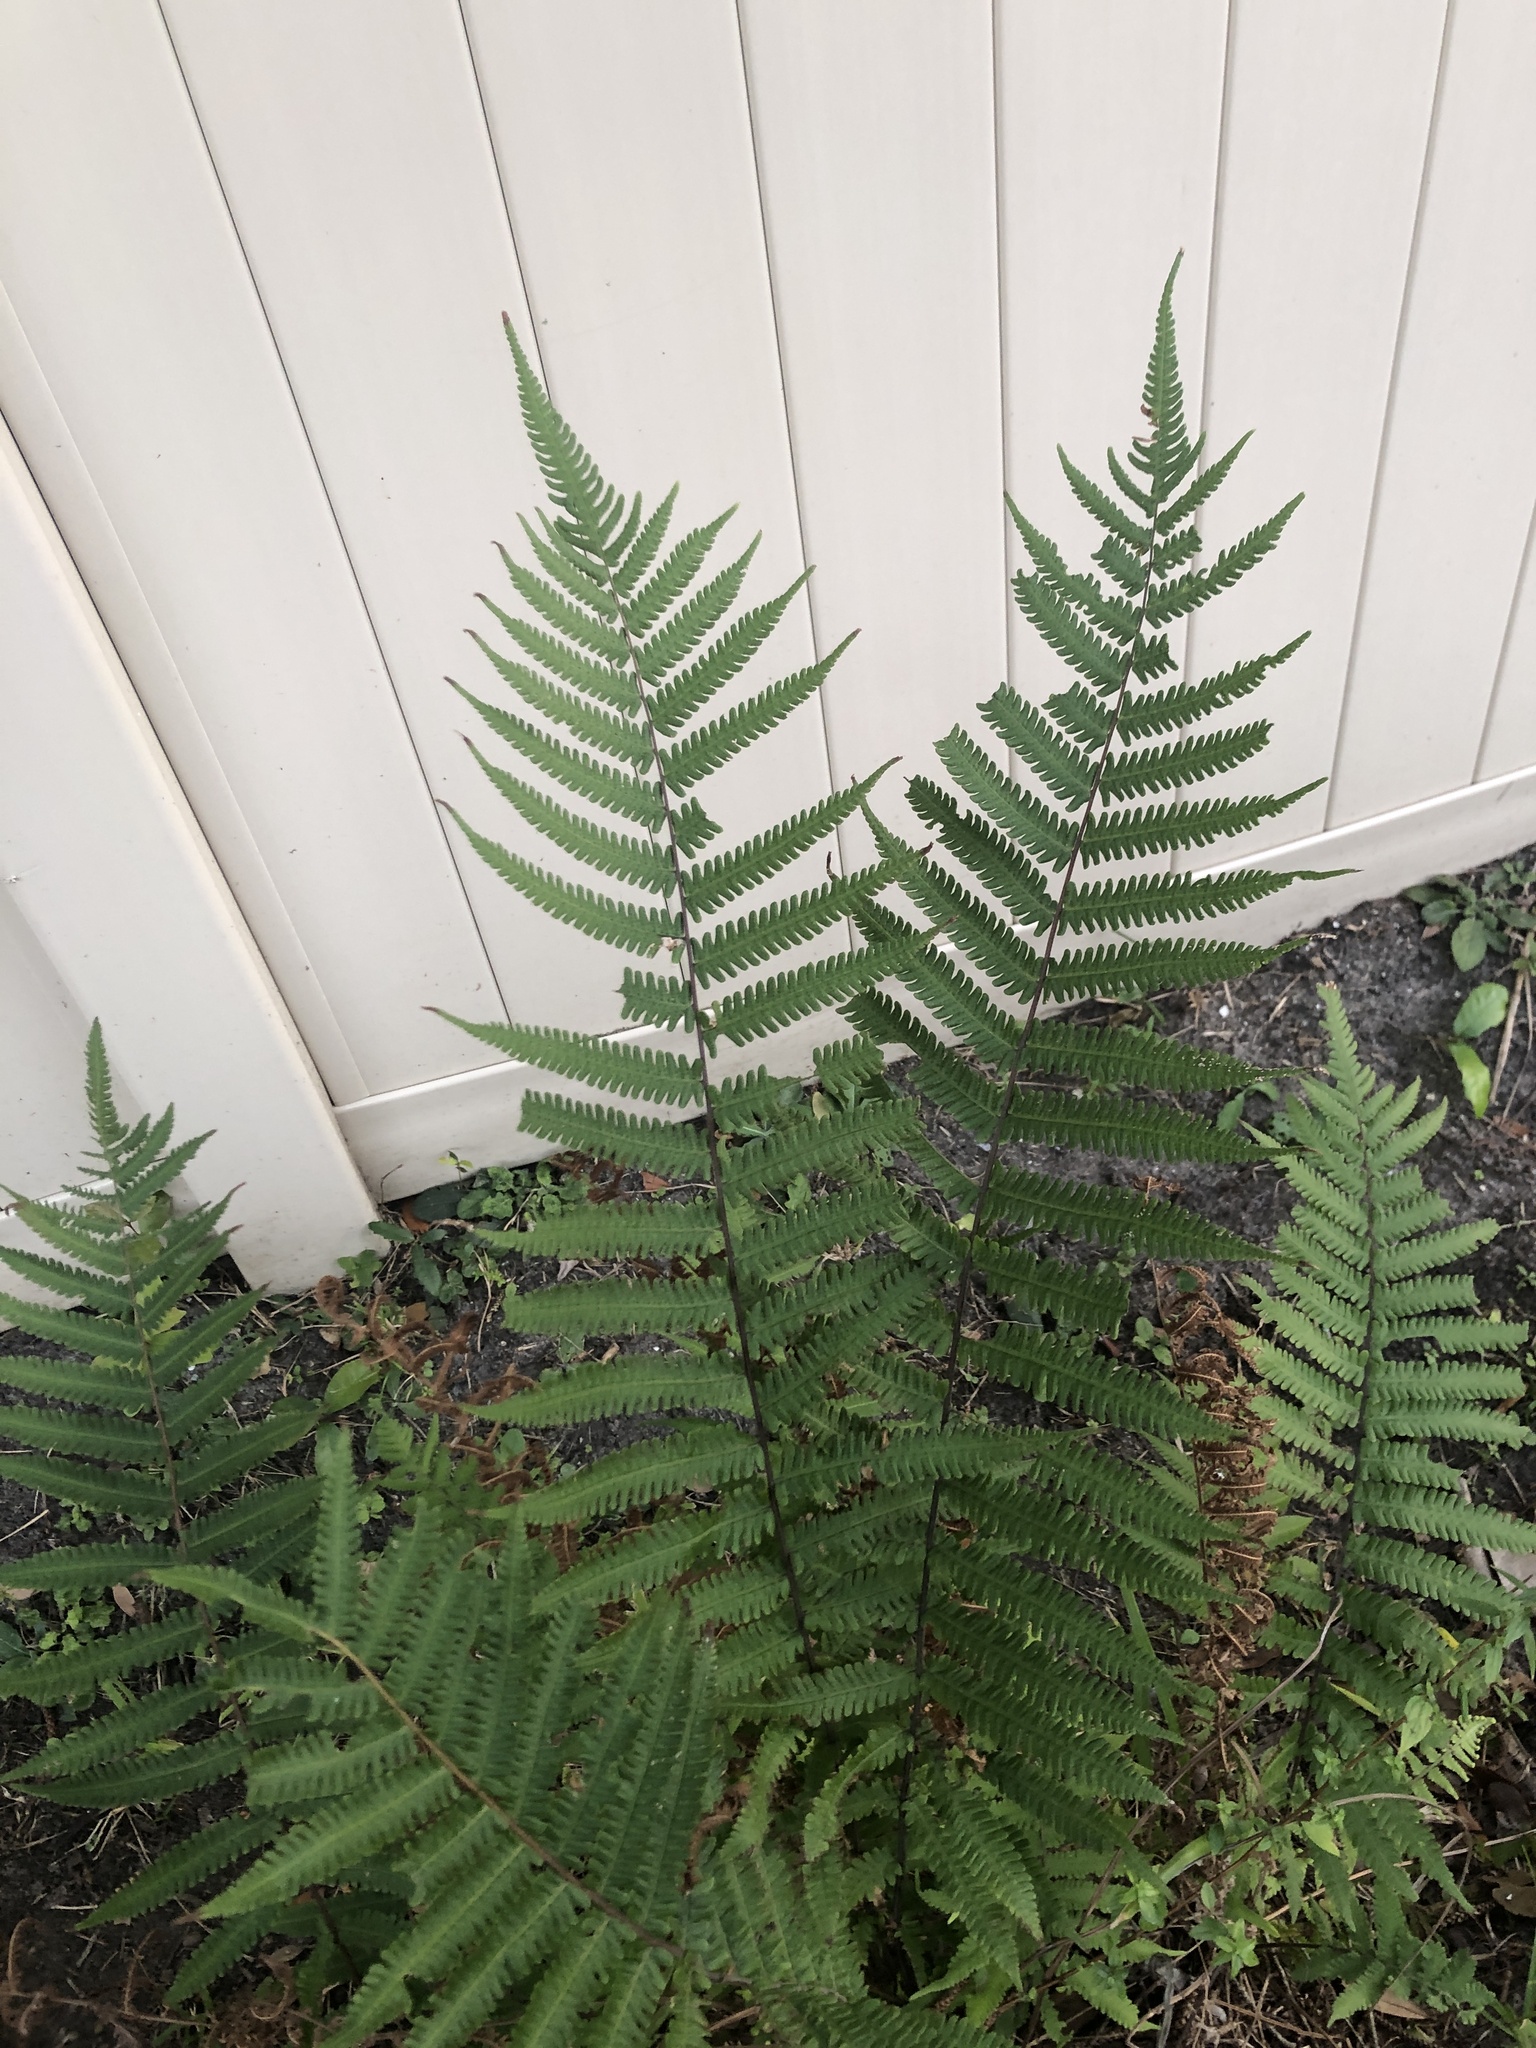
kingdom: Plantae
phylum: Tracheophyta
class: Polypodiopsida
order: Polypodiales
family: Thelypteridaceae
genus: Christella
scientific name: Christella dentata
